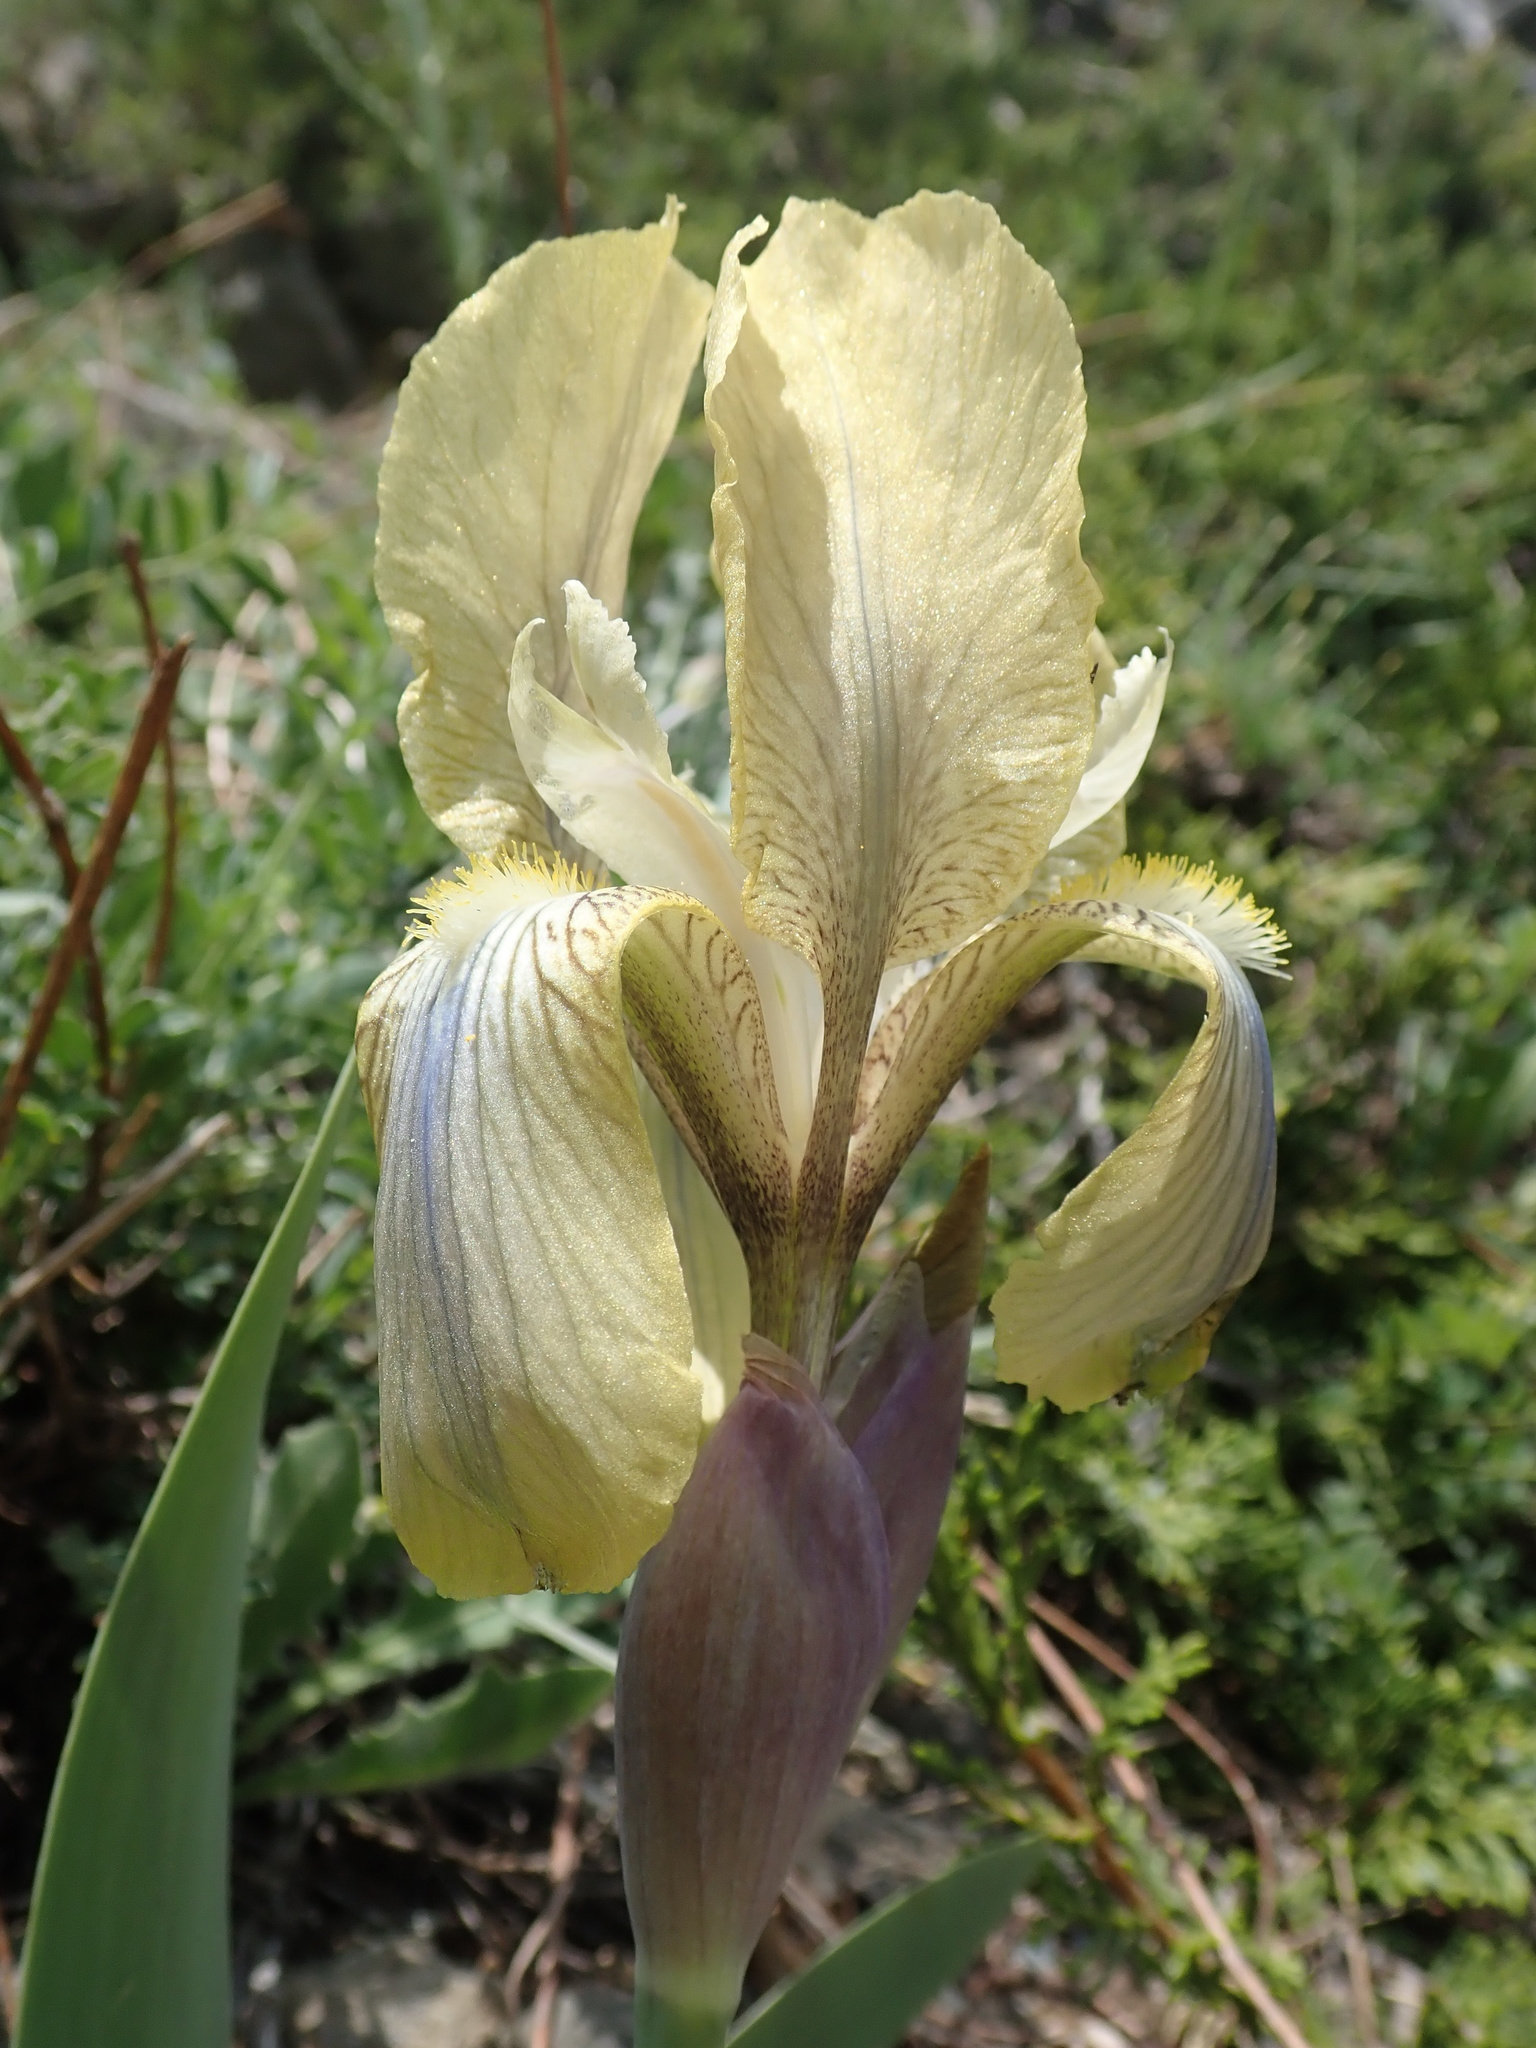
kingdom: Plantae
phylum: Tracheophyta
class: Liliopsida
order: Asparagales
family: Iridaceae
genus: Iris
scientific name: Iris purpureobractea
